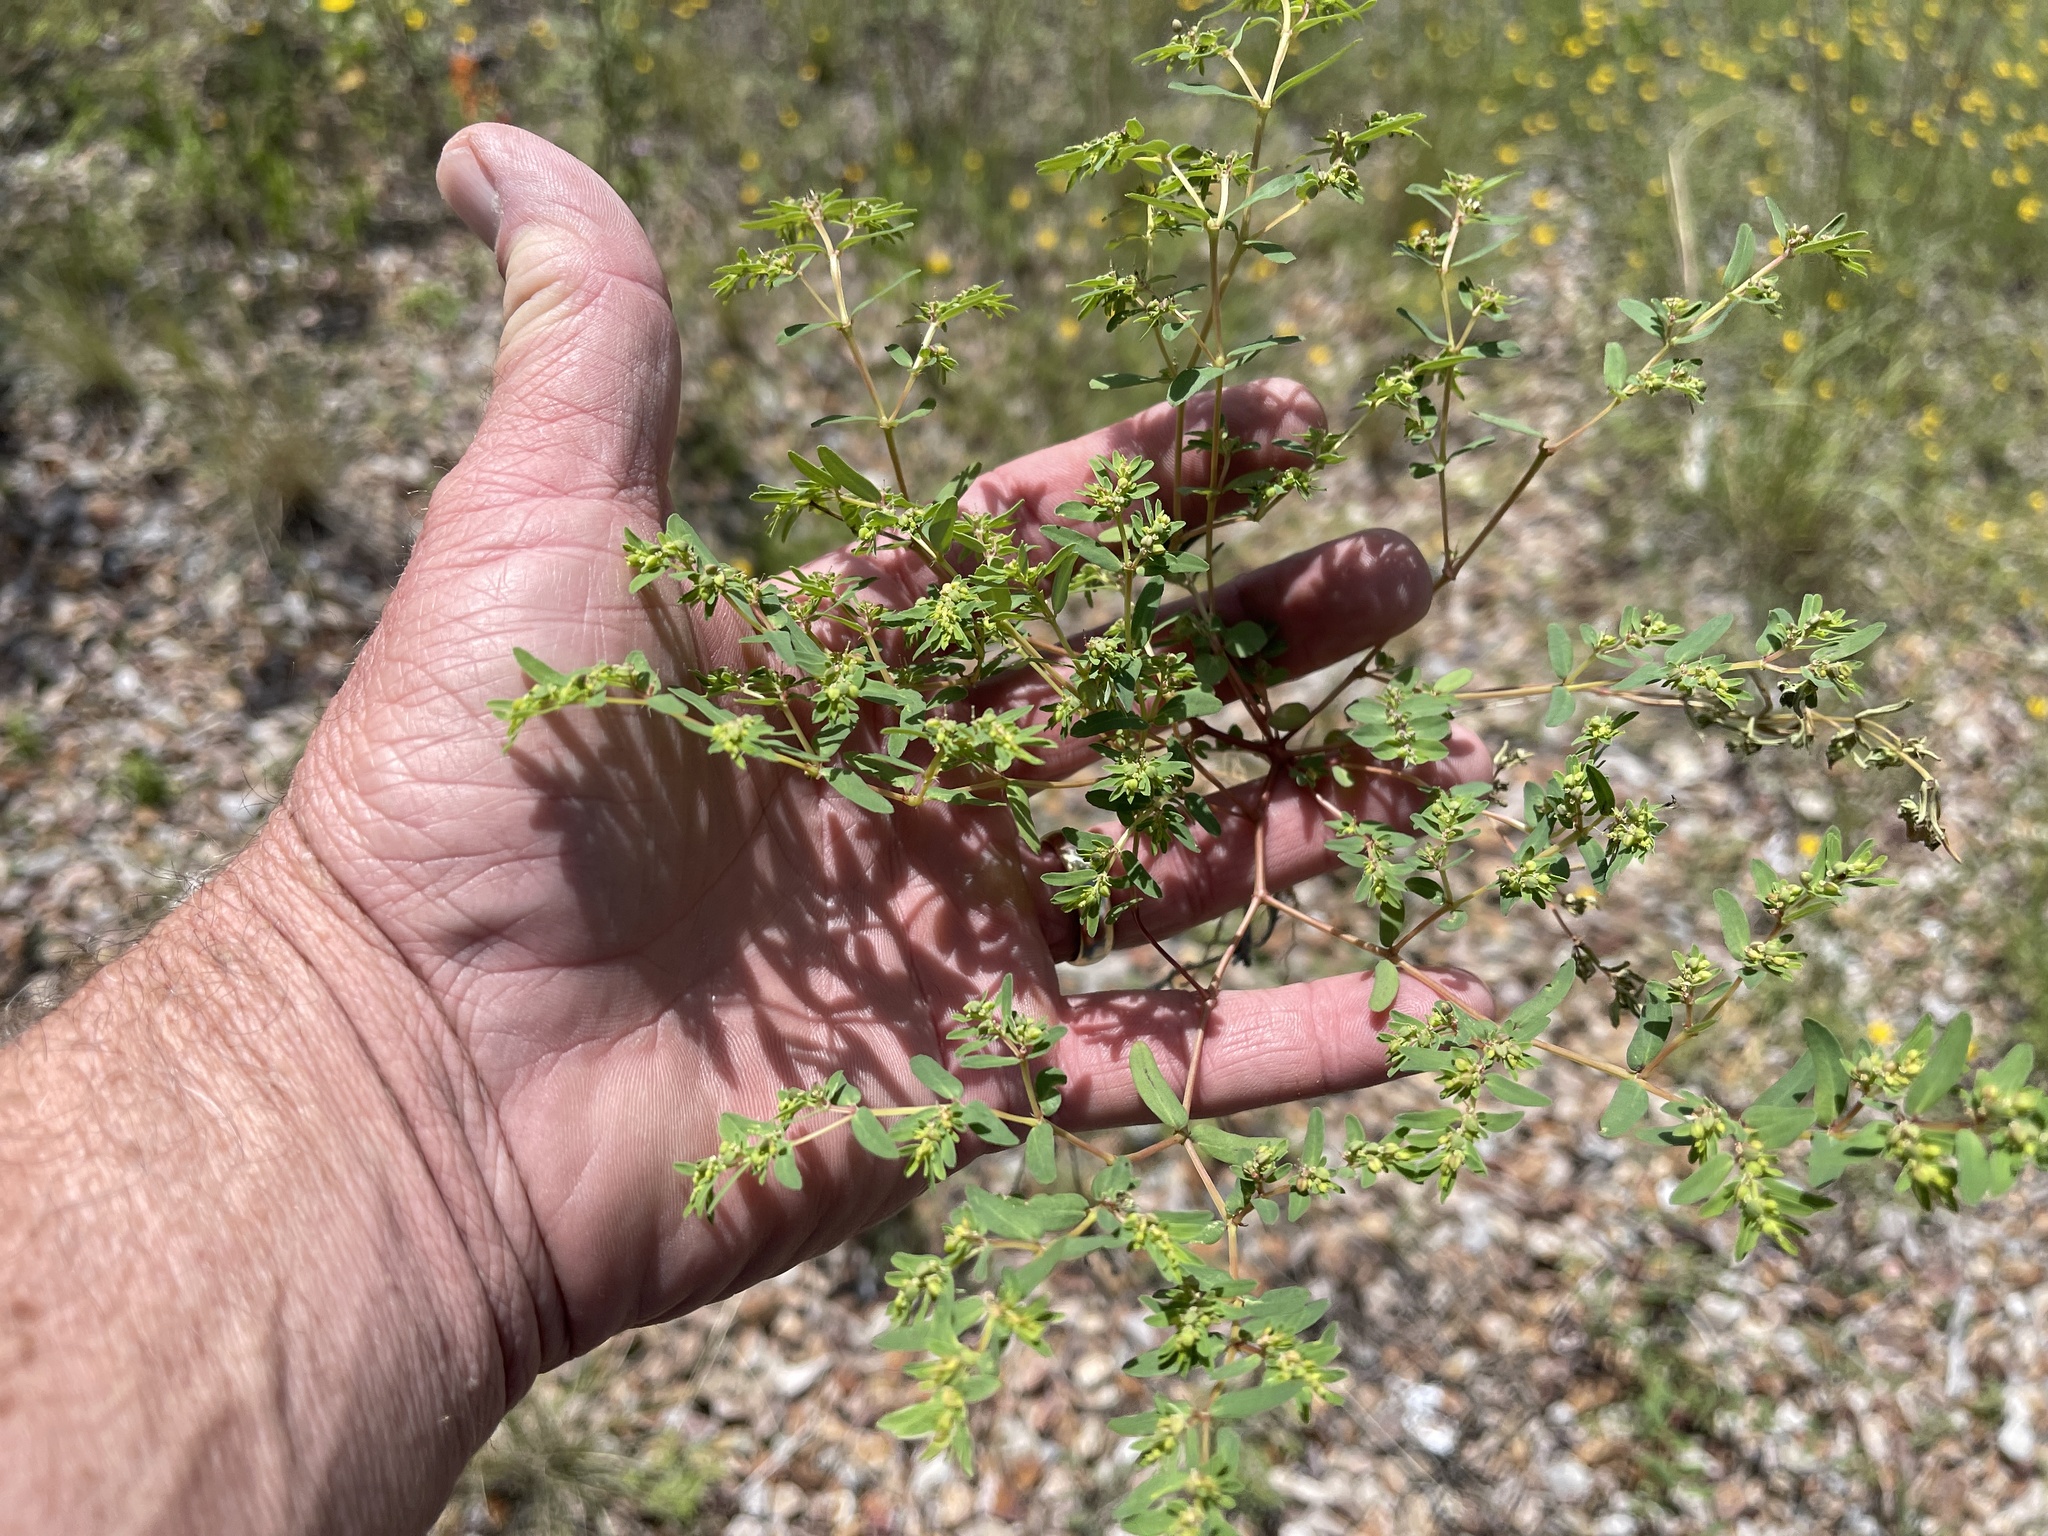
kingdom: Plantae
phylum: Tracheophyta
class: Magnoliopsida
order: Malpighiales
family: Euphorbiaceae
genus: Euphorbia
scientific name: Euphorbia serpillifolia
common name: Thyme-leaf spurge
